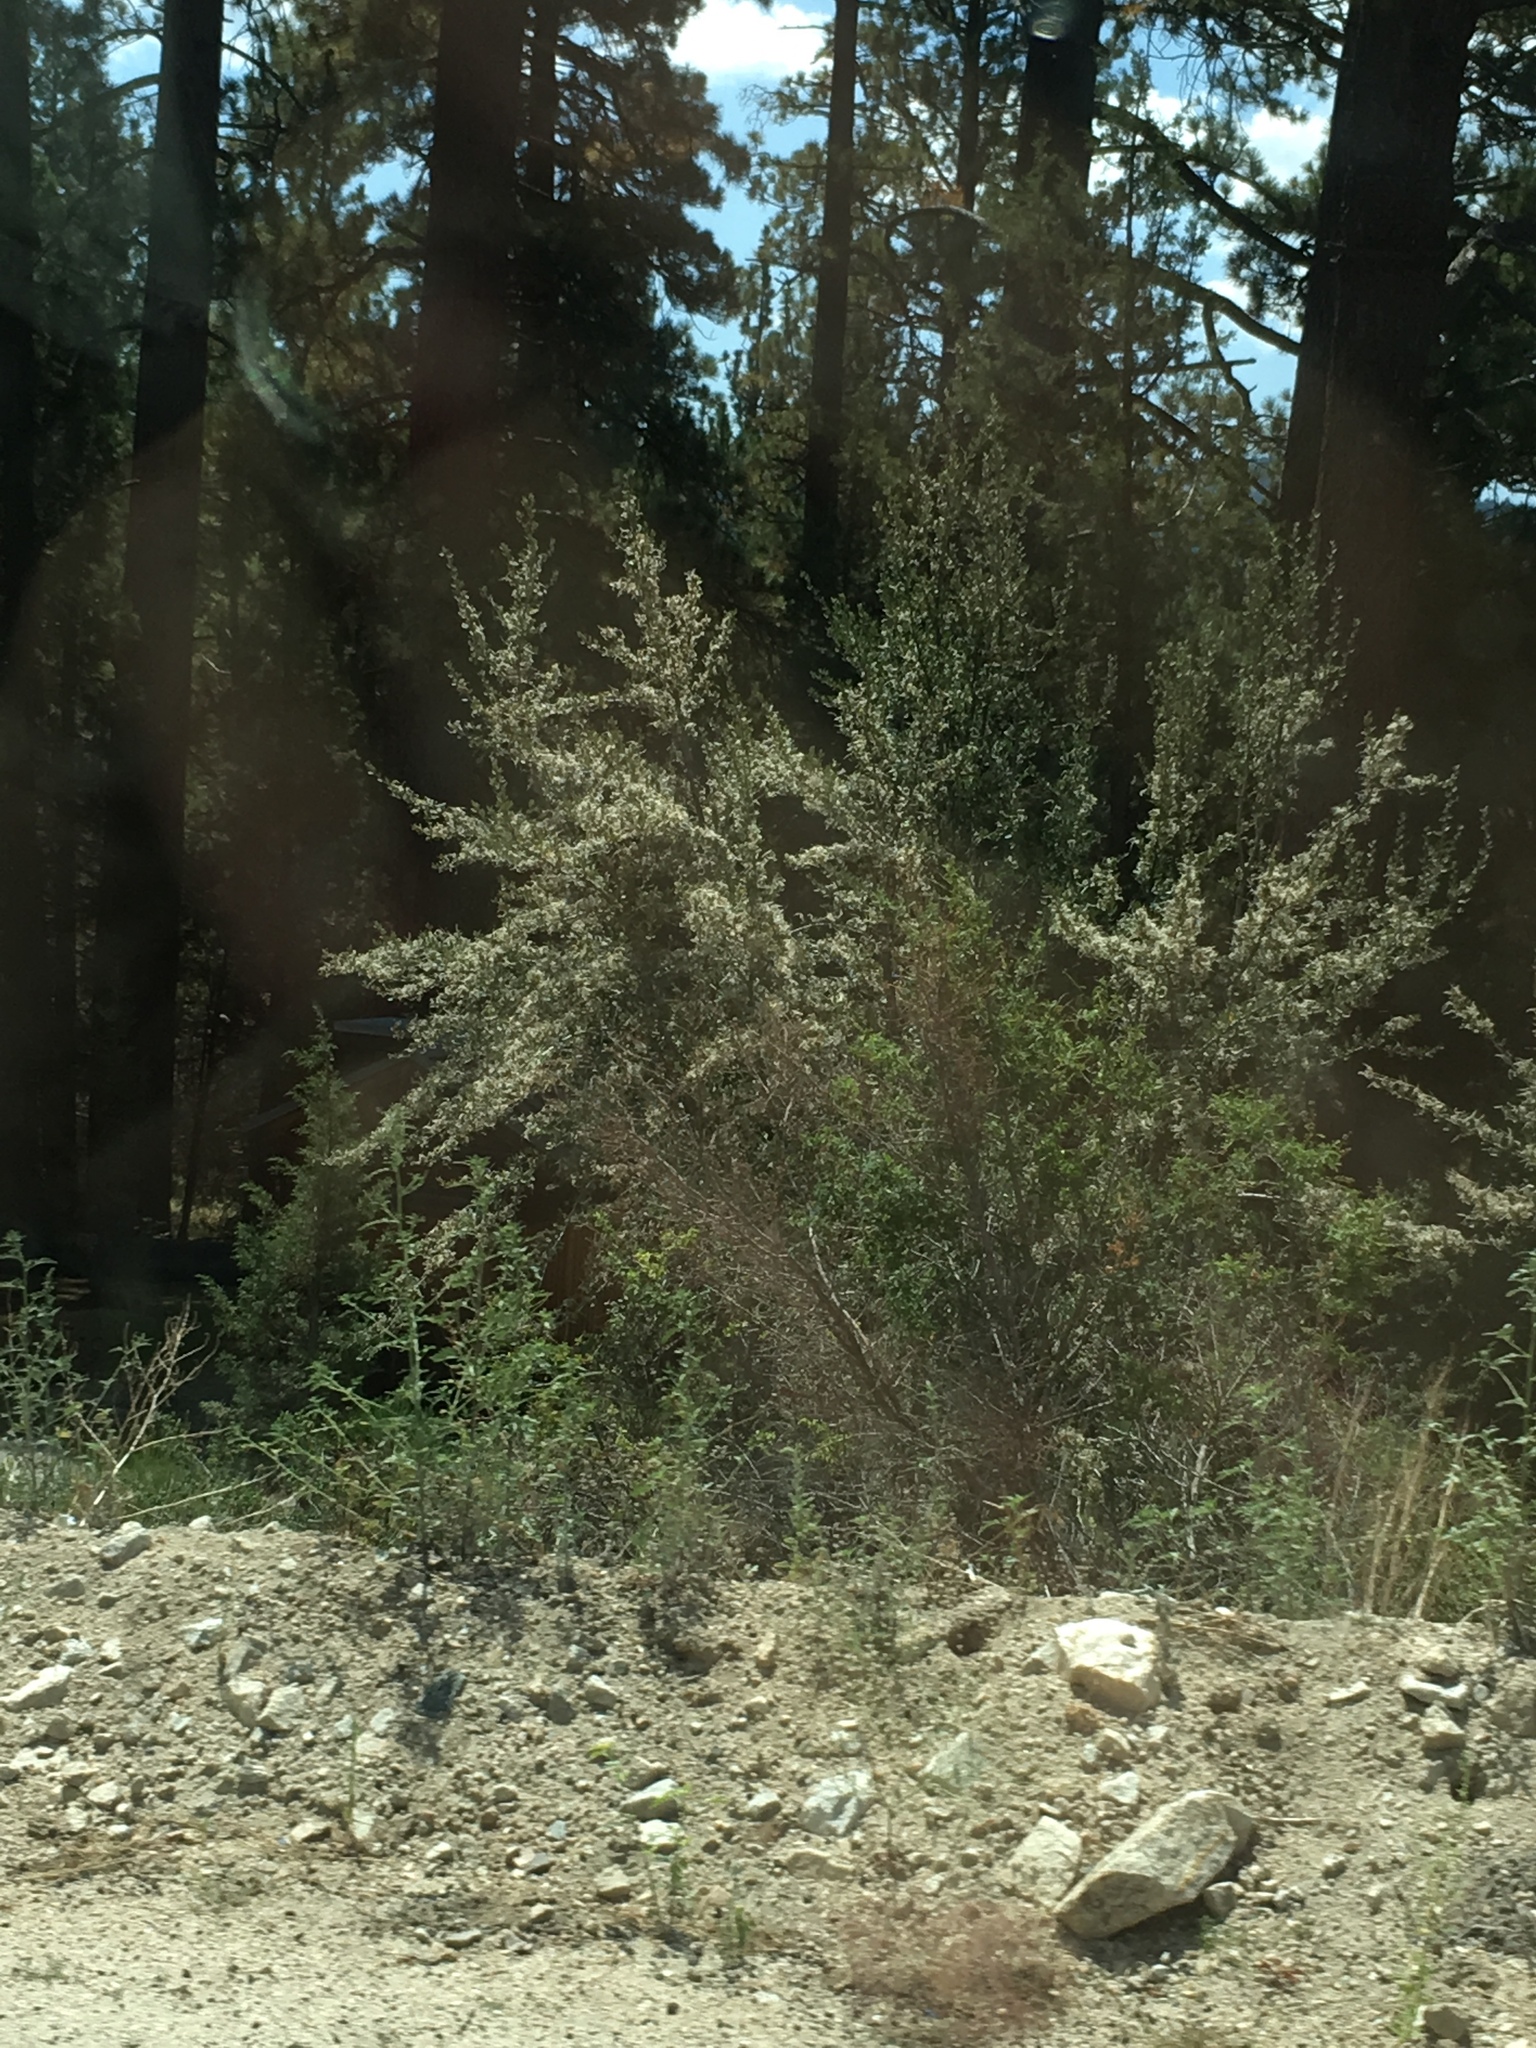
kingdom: Plantae
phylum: Tracheophyta
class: Magnoliopsida
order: Rosales
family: Rosaceae
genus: Cercocarpus
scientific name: Cercocarpus ledifolius
